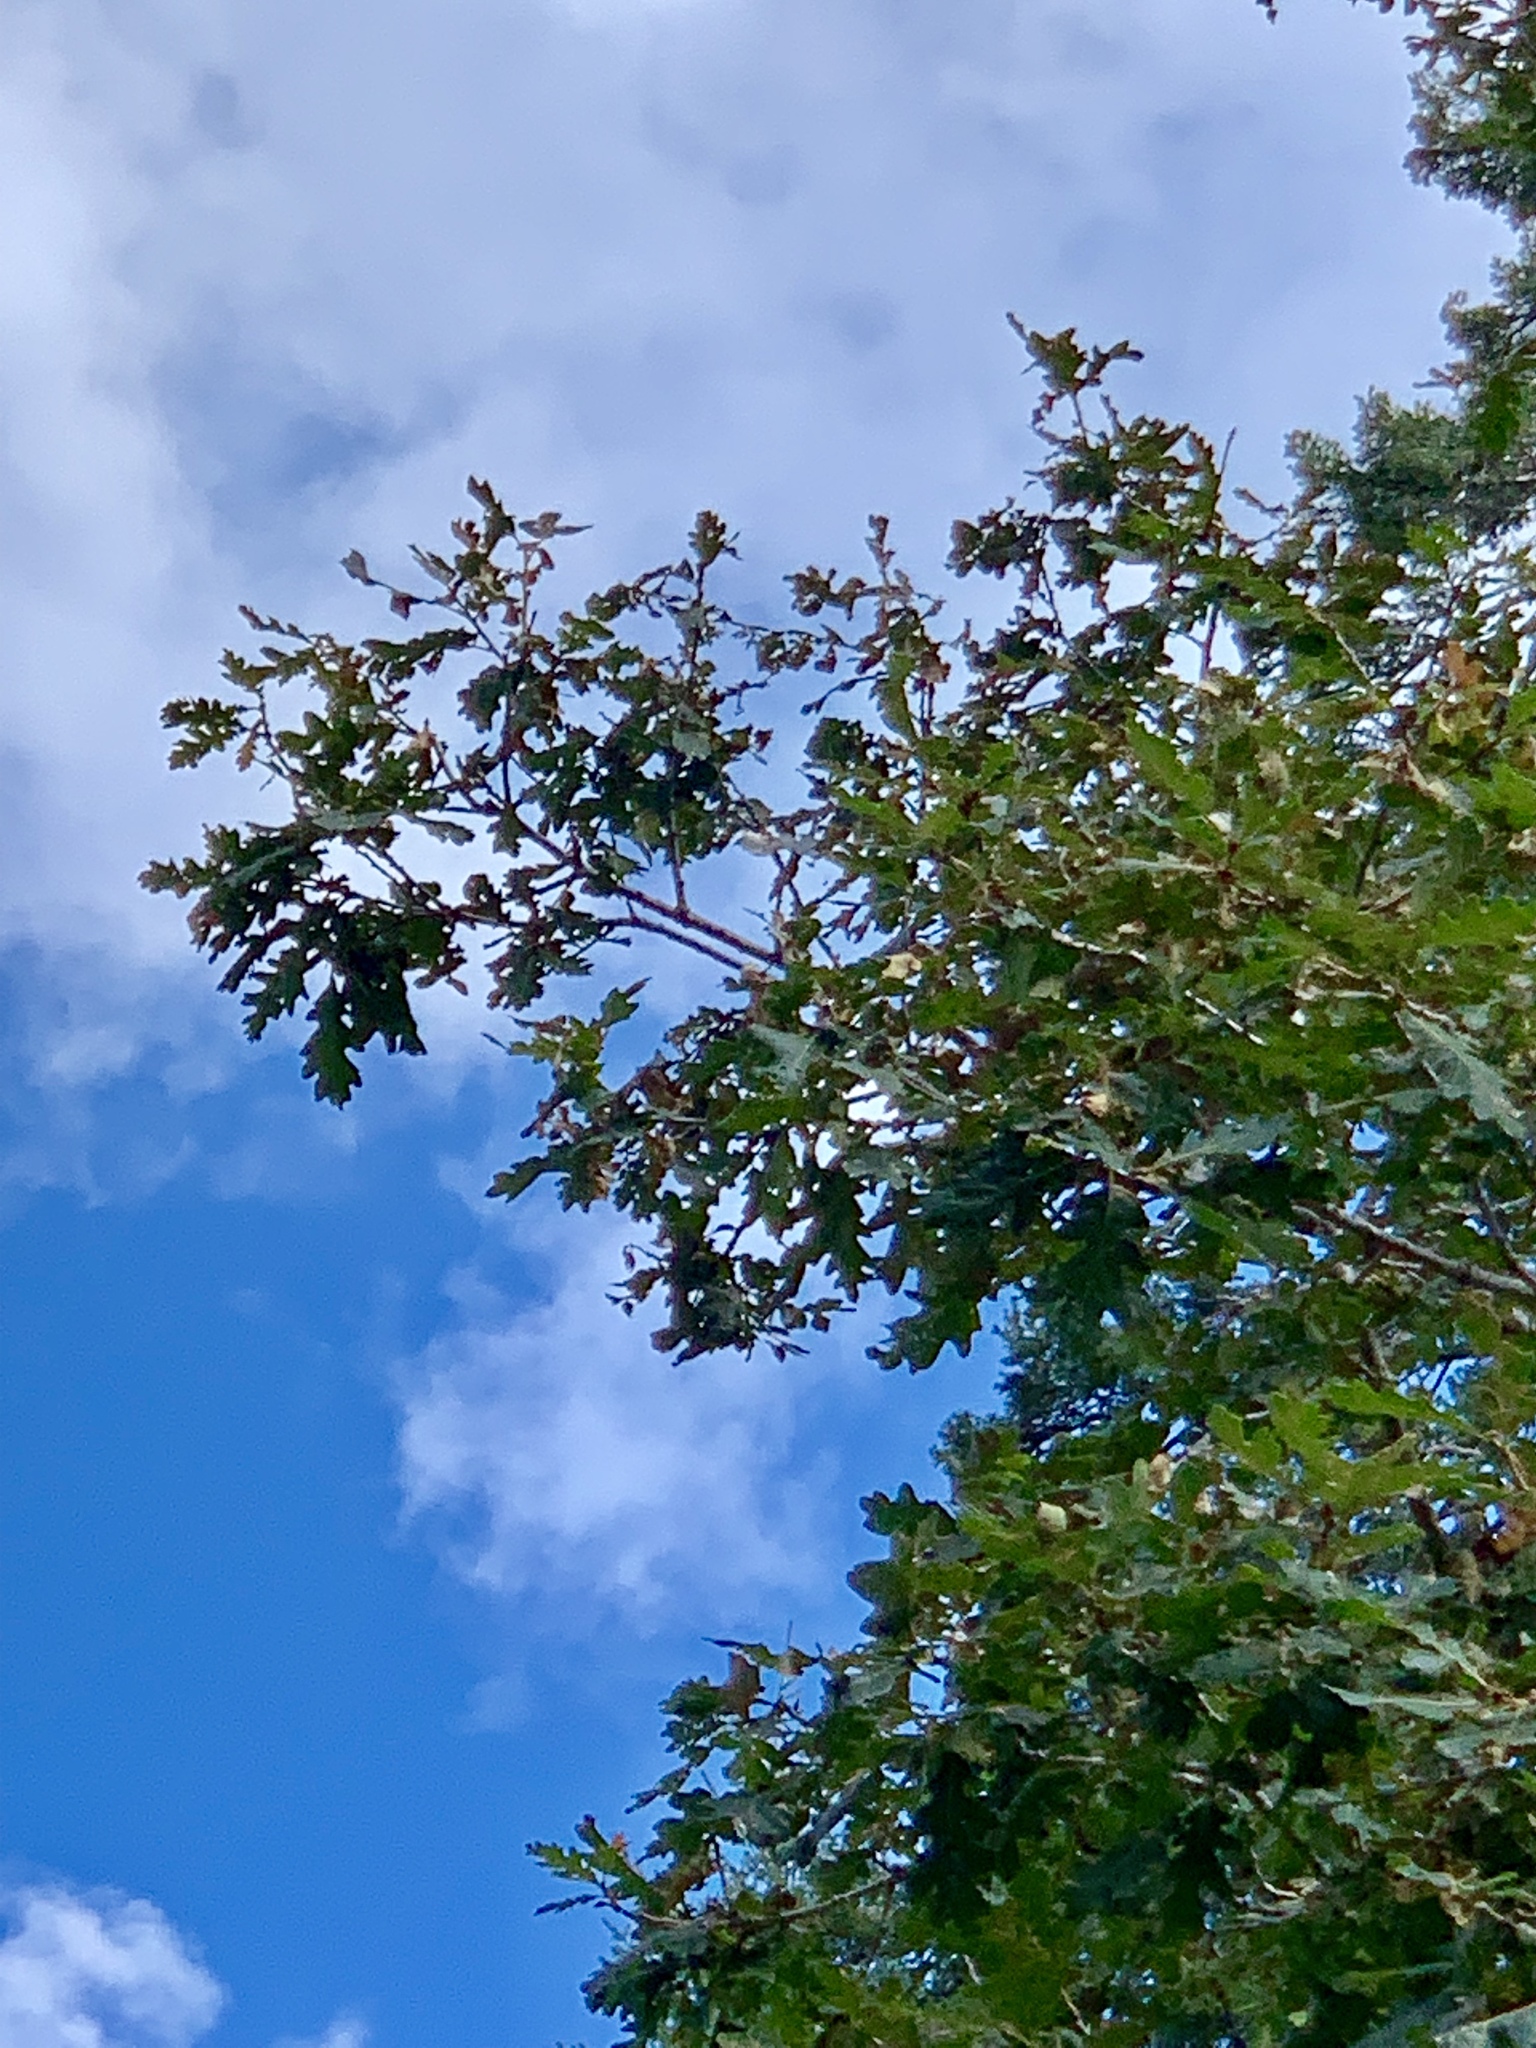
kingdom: Plantae
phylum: Tracheophyta
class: Magnoliopsida
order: Fagales
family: Fagaceae
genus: Quercus
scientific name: Quercus gambelii
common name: Gambel oak
